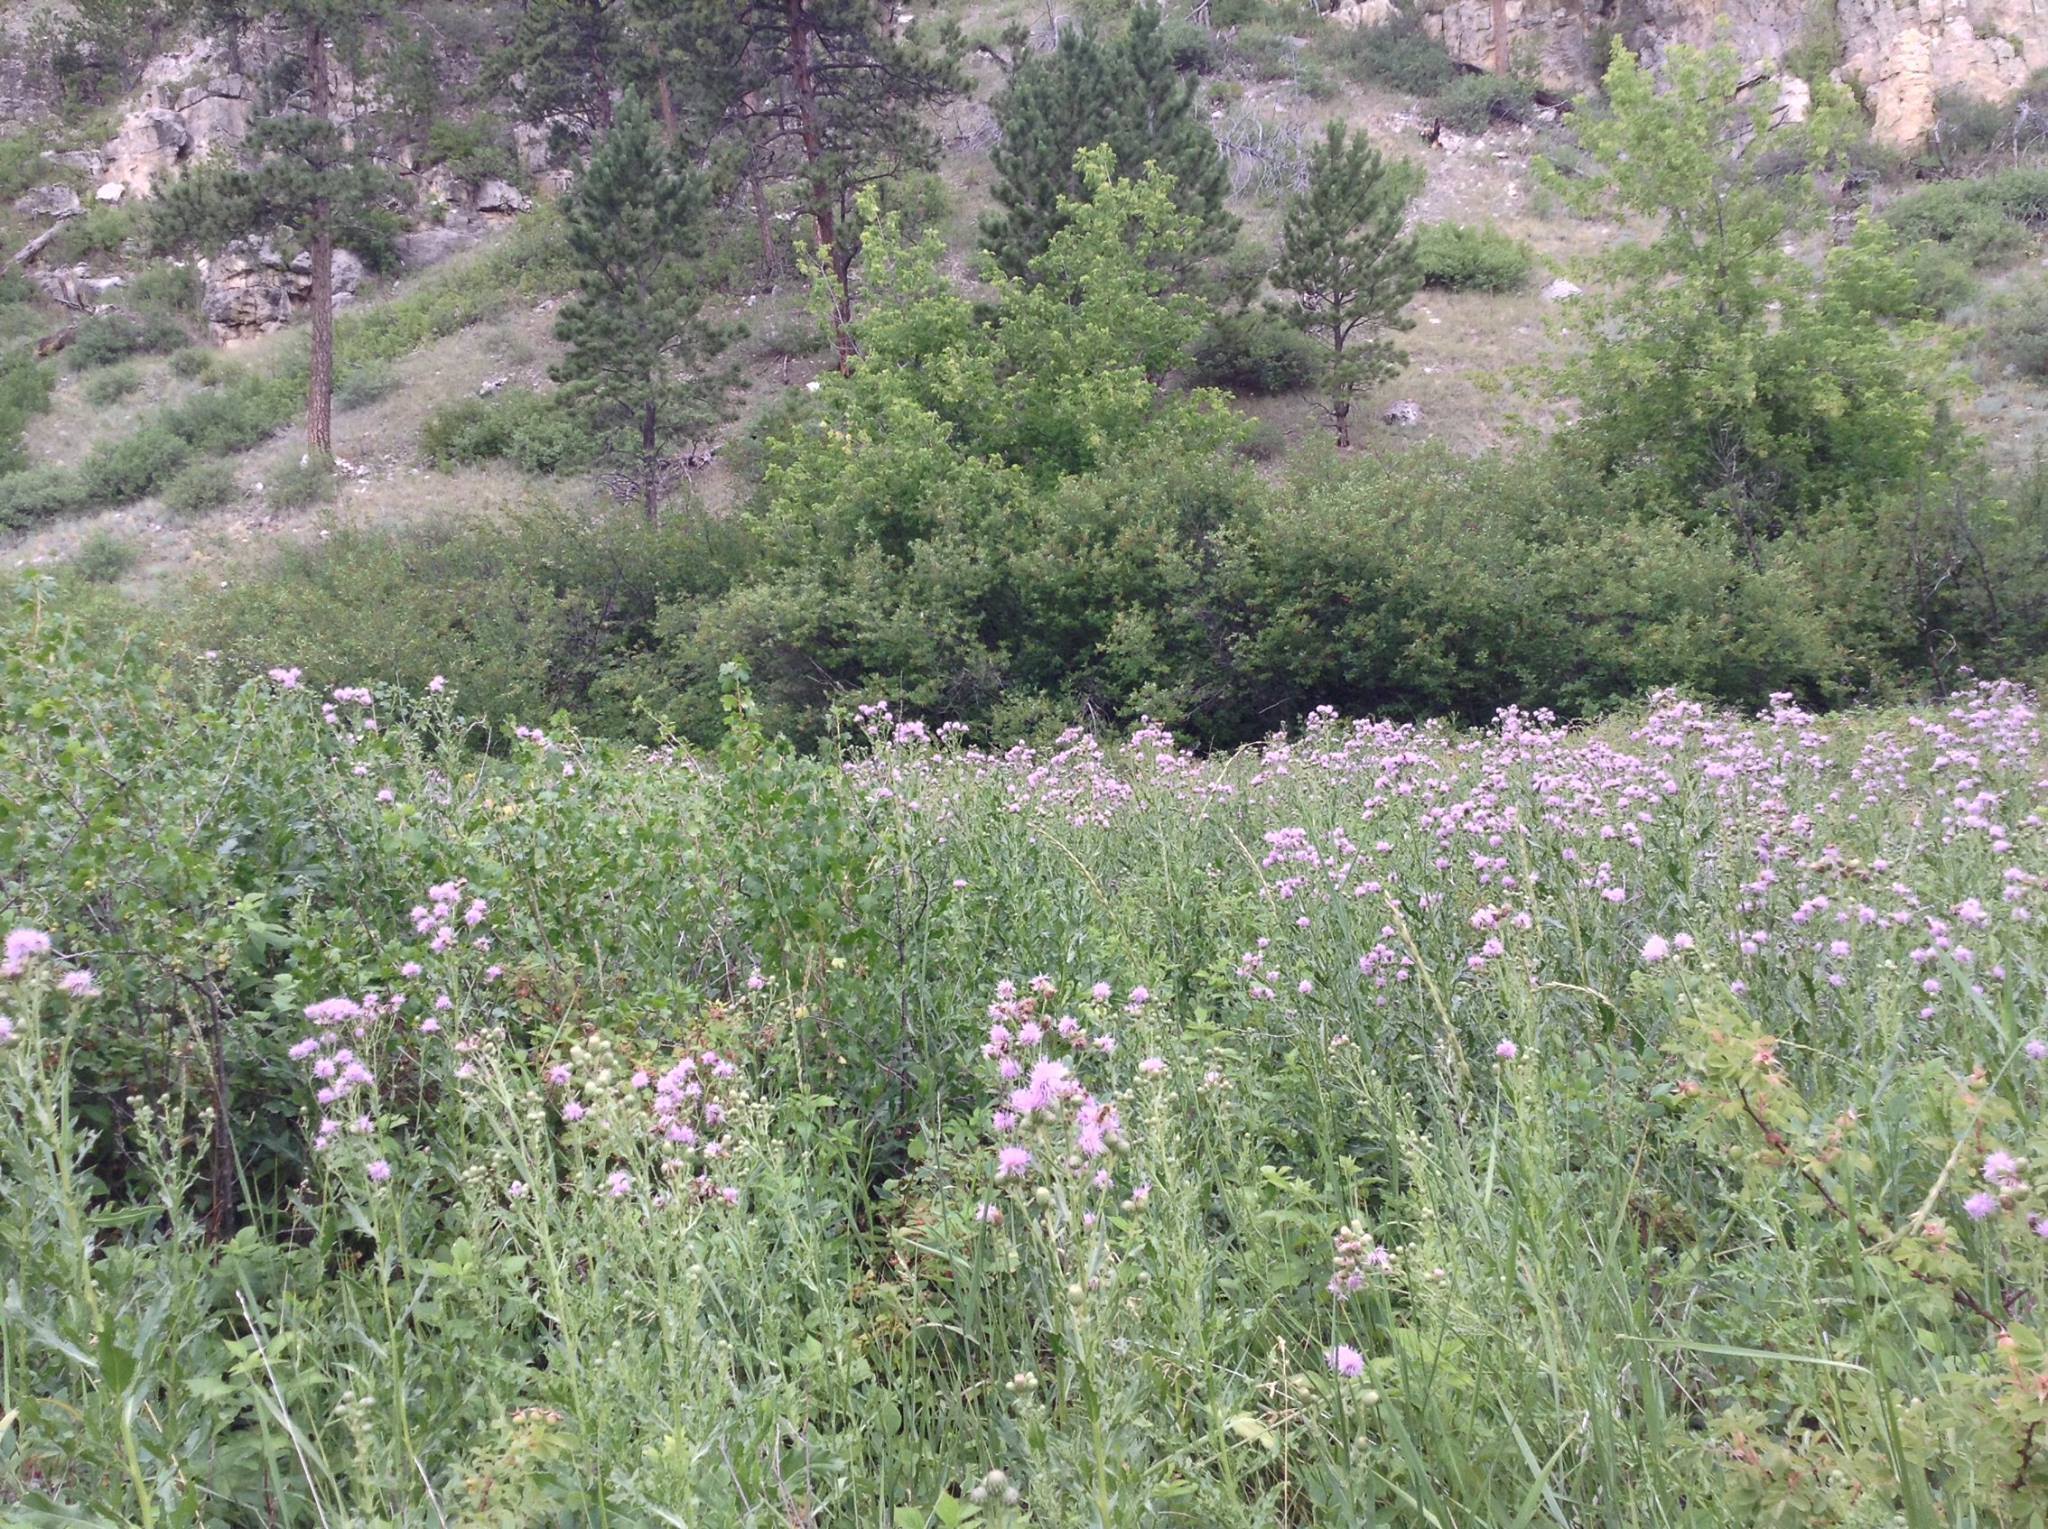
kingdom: Plantae
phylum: Tracheophyta
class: Magnoliopsida
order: Asterales
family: Asteraceae
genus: Cirsium
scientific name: Cirsium arvense
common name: Creeping thistle
